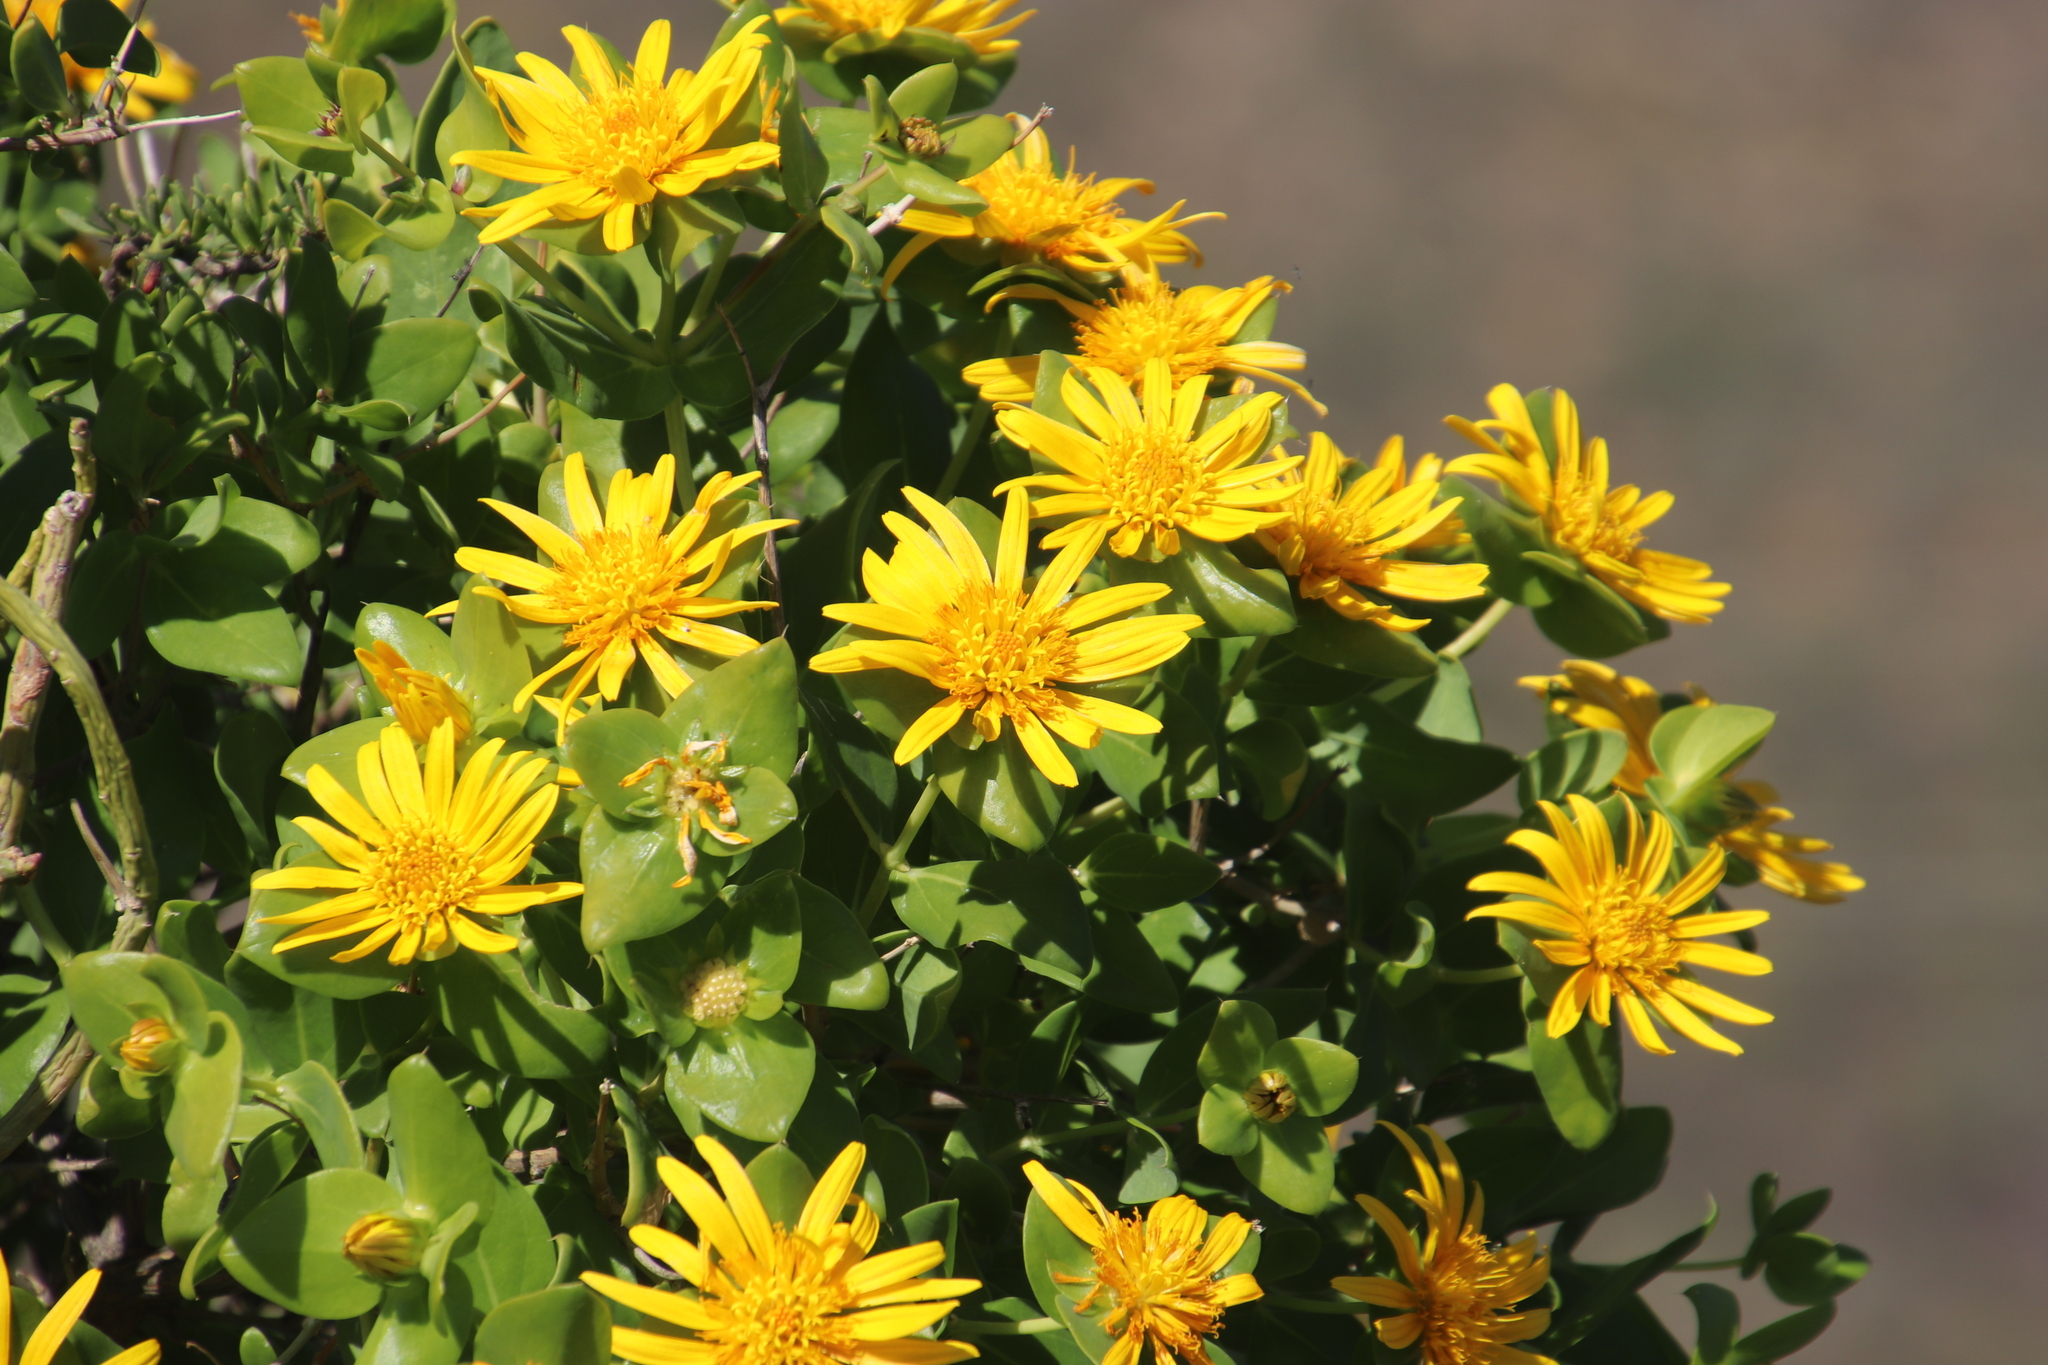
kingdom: Plantae
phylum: Tracheophyta
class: Magnoliopsida
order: Asterales
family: Asteraceae
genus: Didelta
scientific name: Didelta spinosa
